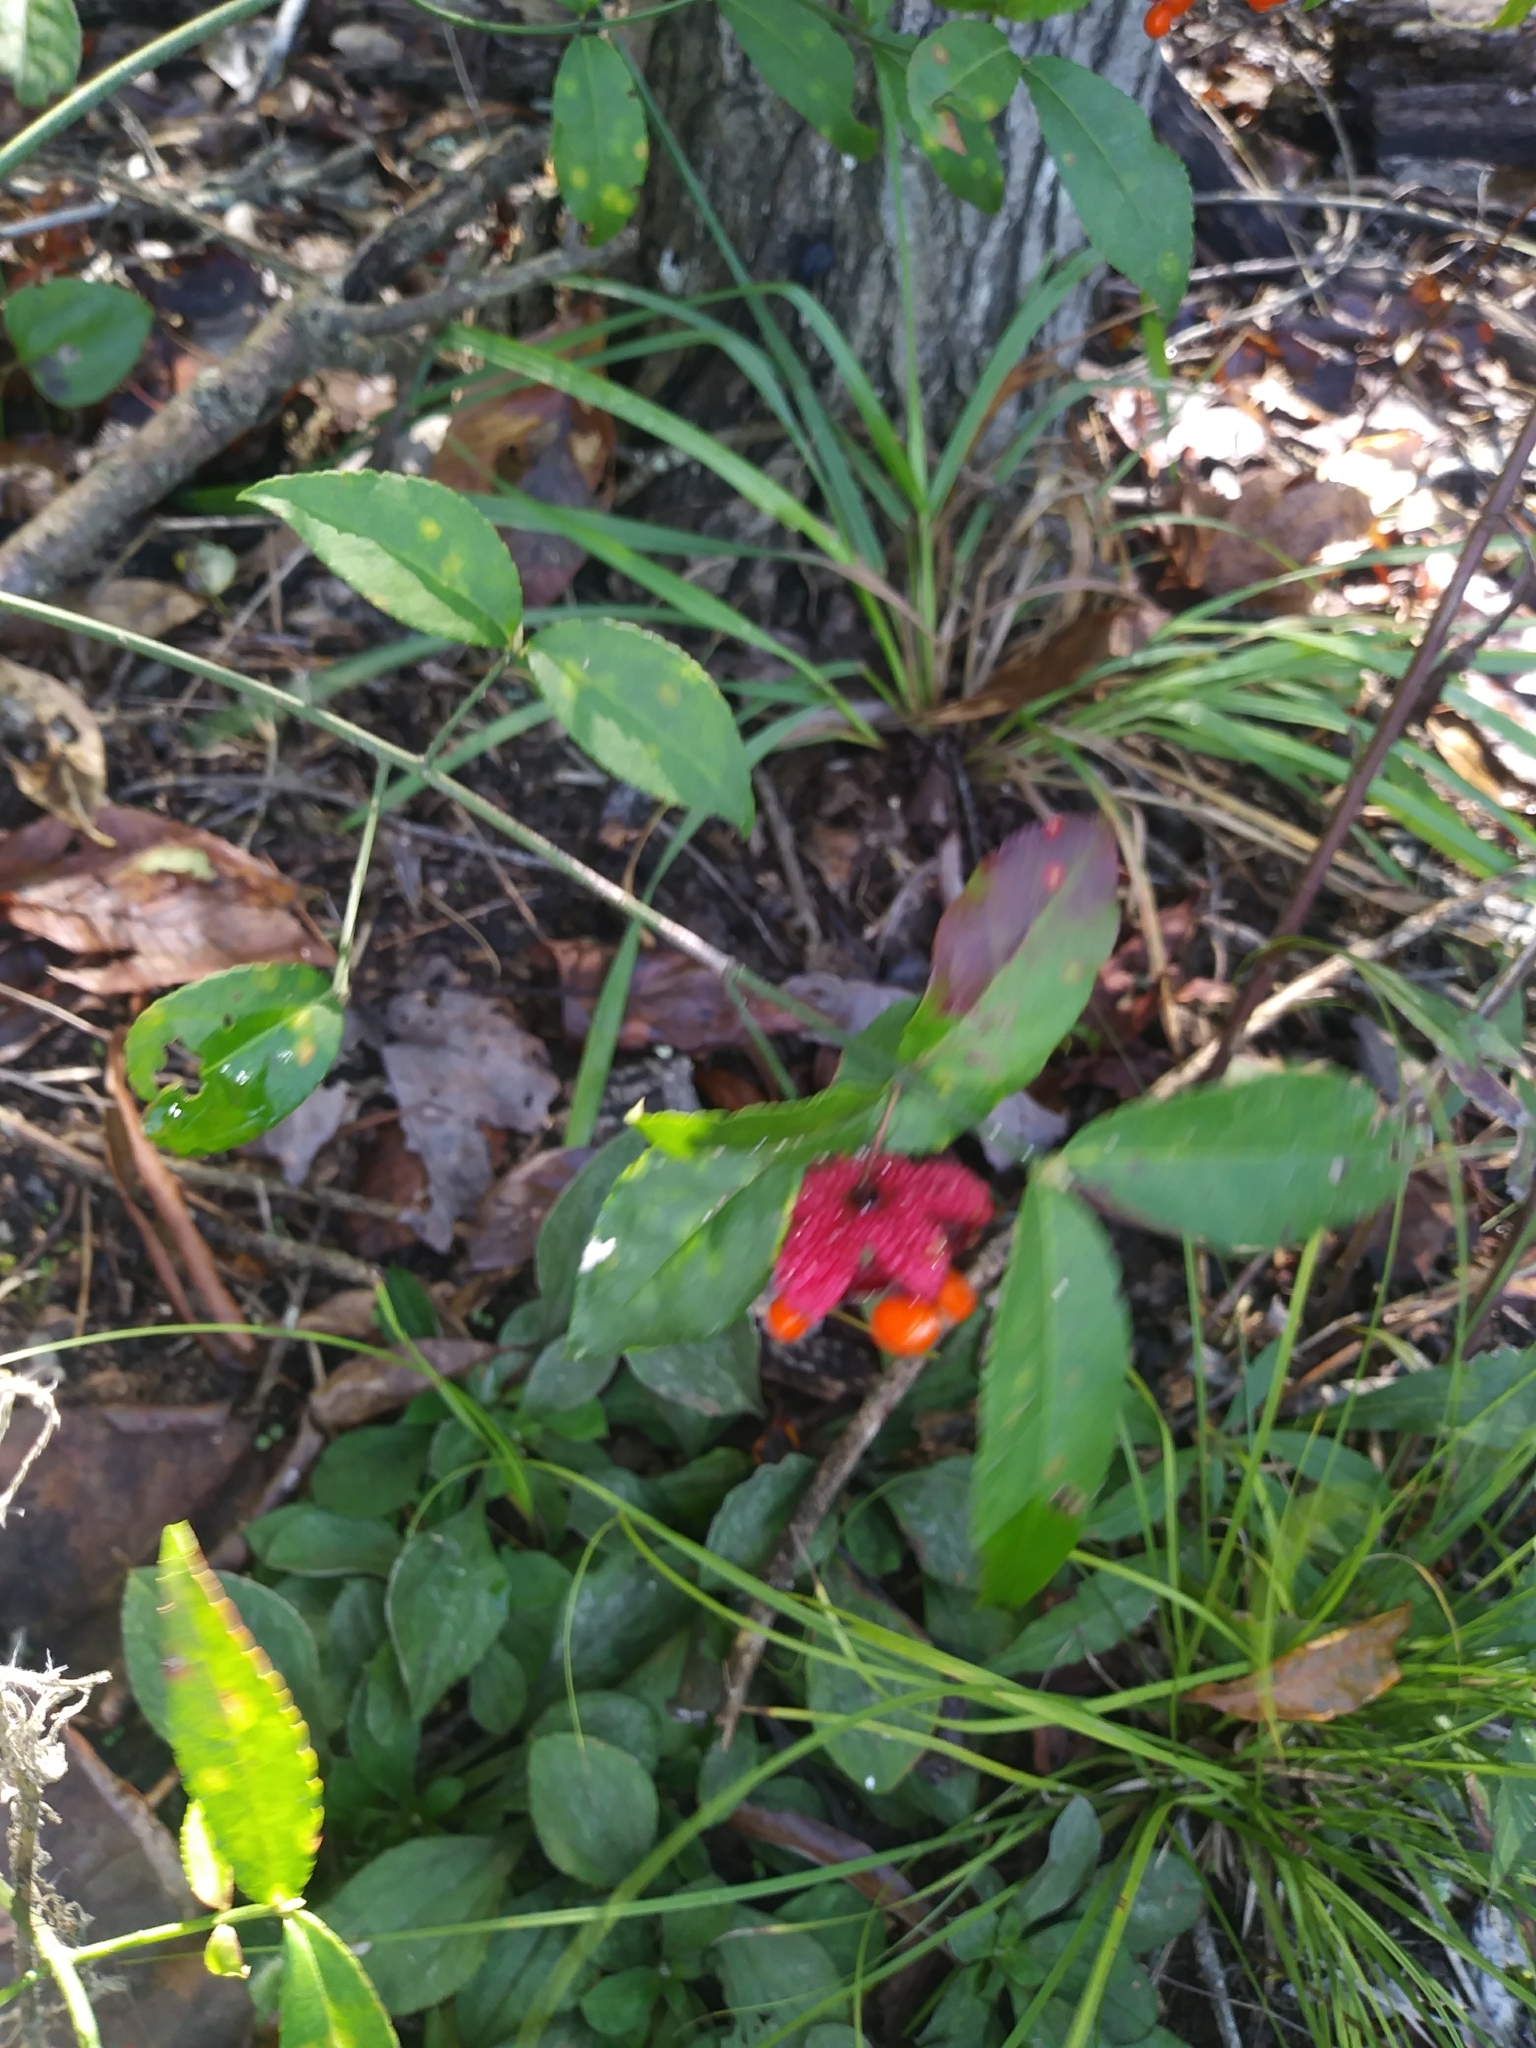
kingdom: Plantae
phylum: Tracheophyta
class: Magnoliopsida
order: Celastrales
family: Celastraceae
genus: Euonymus
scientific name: Euonymus americanus
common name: Bursting-heart
